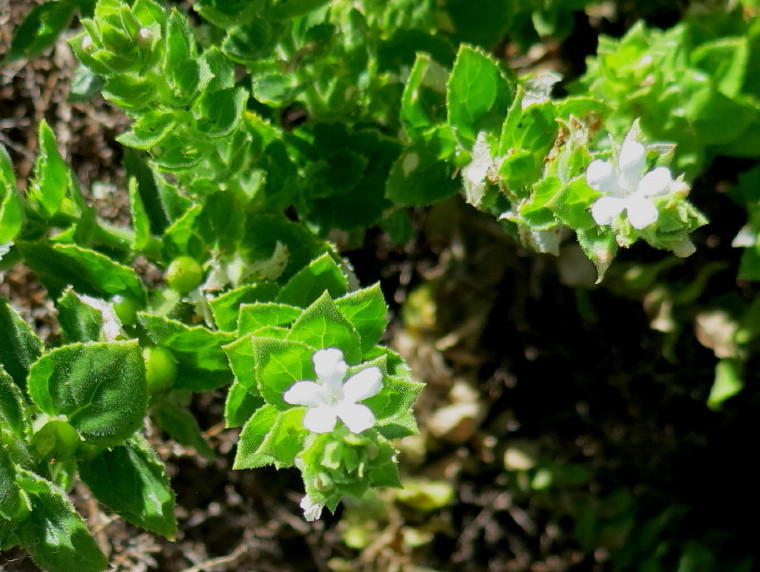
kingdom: Plantae
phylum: Tracheophyta
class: Magnoliopsida
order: Lamiales
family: Scrophulariaceae
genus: Oftia
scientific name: Oftia africana
